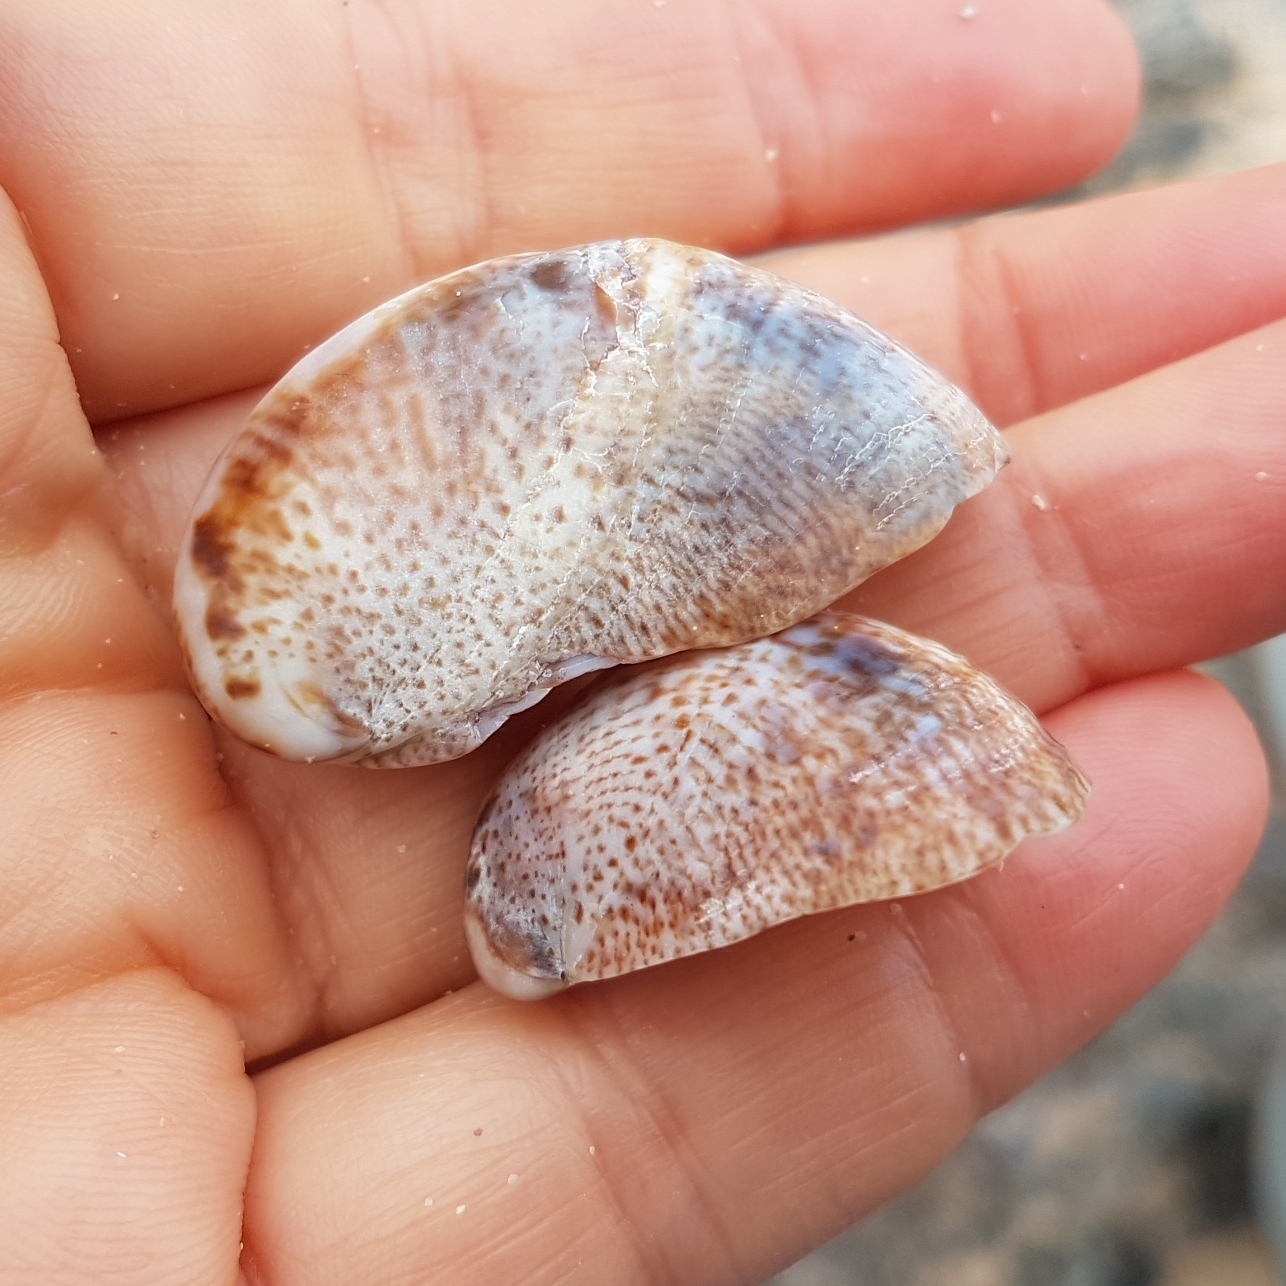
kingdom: Animalia
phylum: Mollusca
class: Gastropoda
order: Littorinimorpha
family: Calyptraeidae
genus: Crepidula
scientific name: Crepidula fornicata
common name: Slipper limpet
